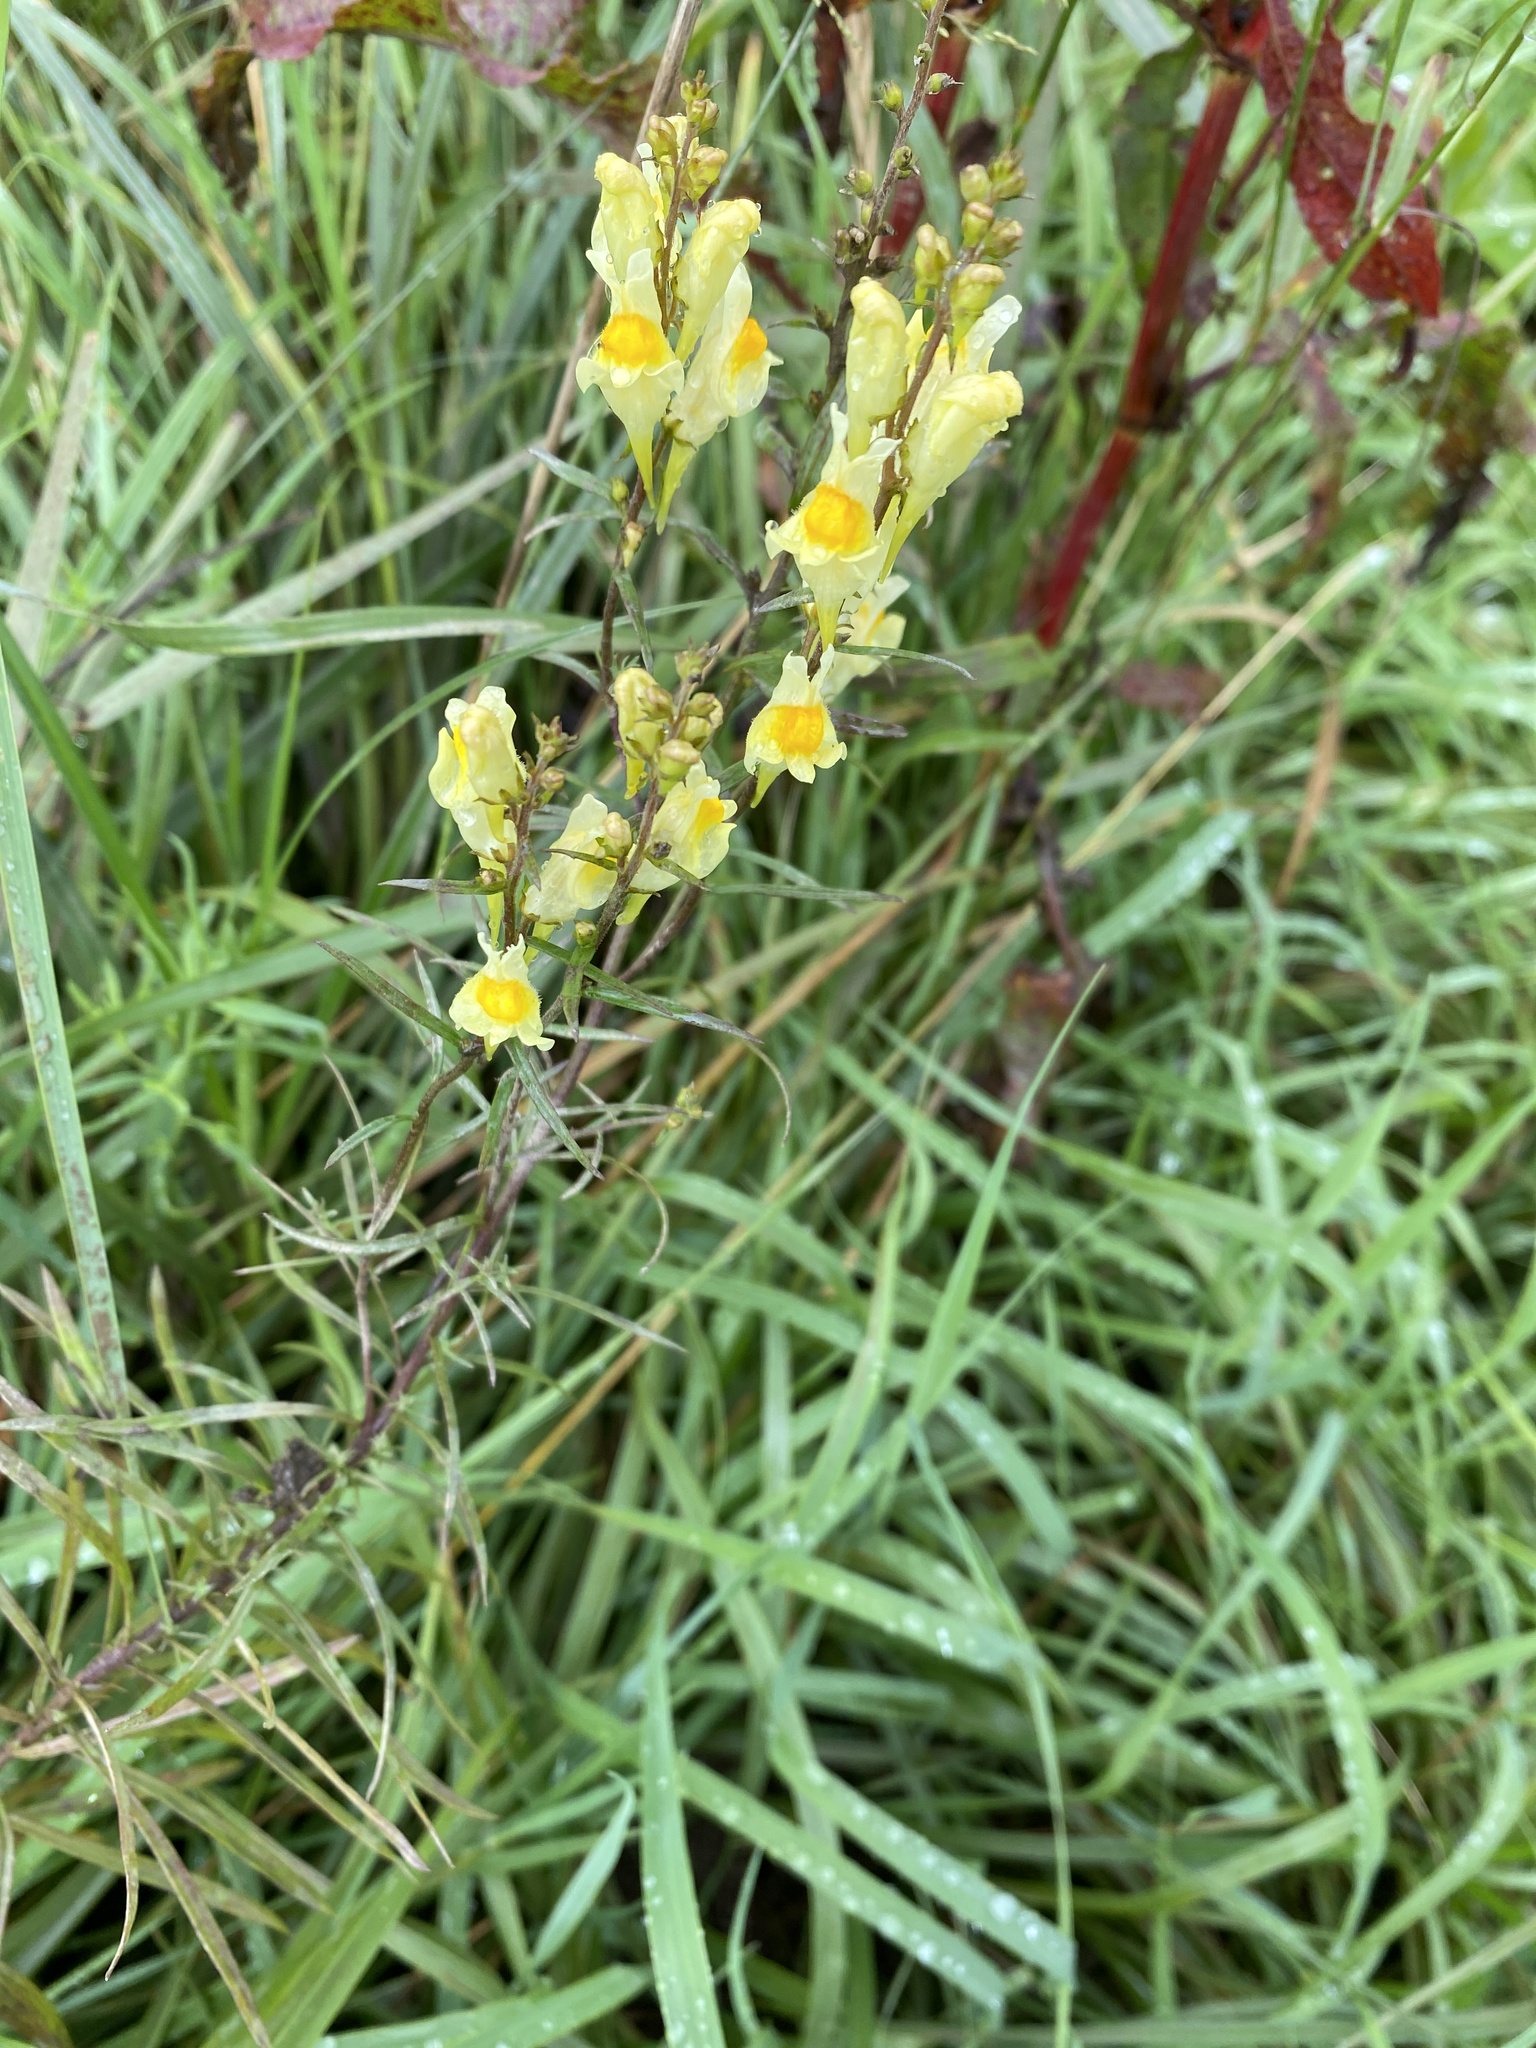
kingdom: Plantae
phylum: Tracheophyta
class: Magnoliopsida
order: Lamiales
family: Plantaginaceae
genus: Linaria
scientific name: Linaria vulgaris
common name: Butter and eggs
